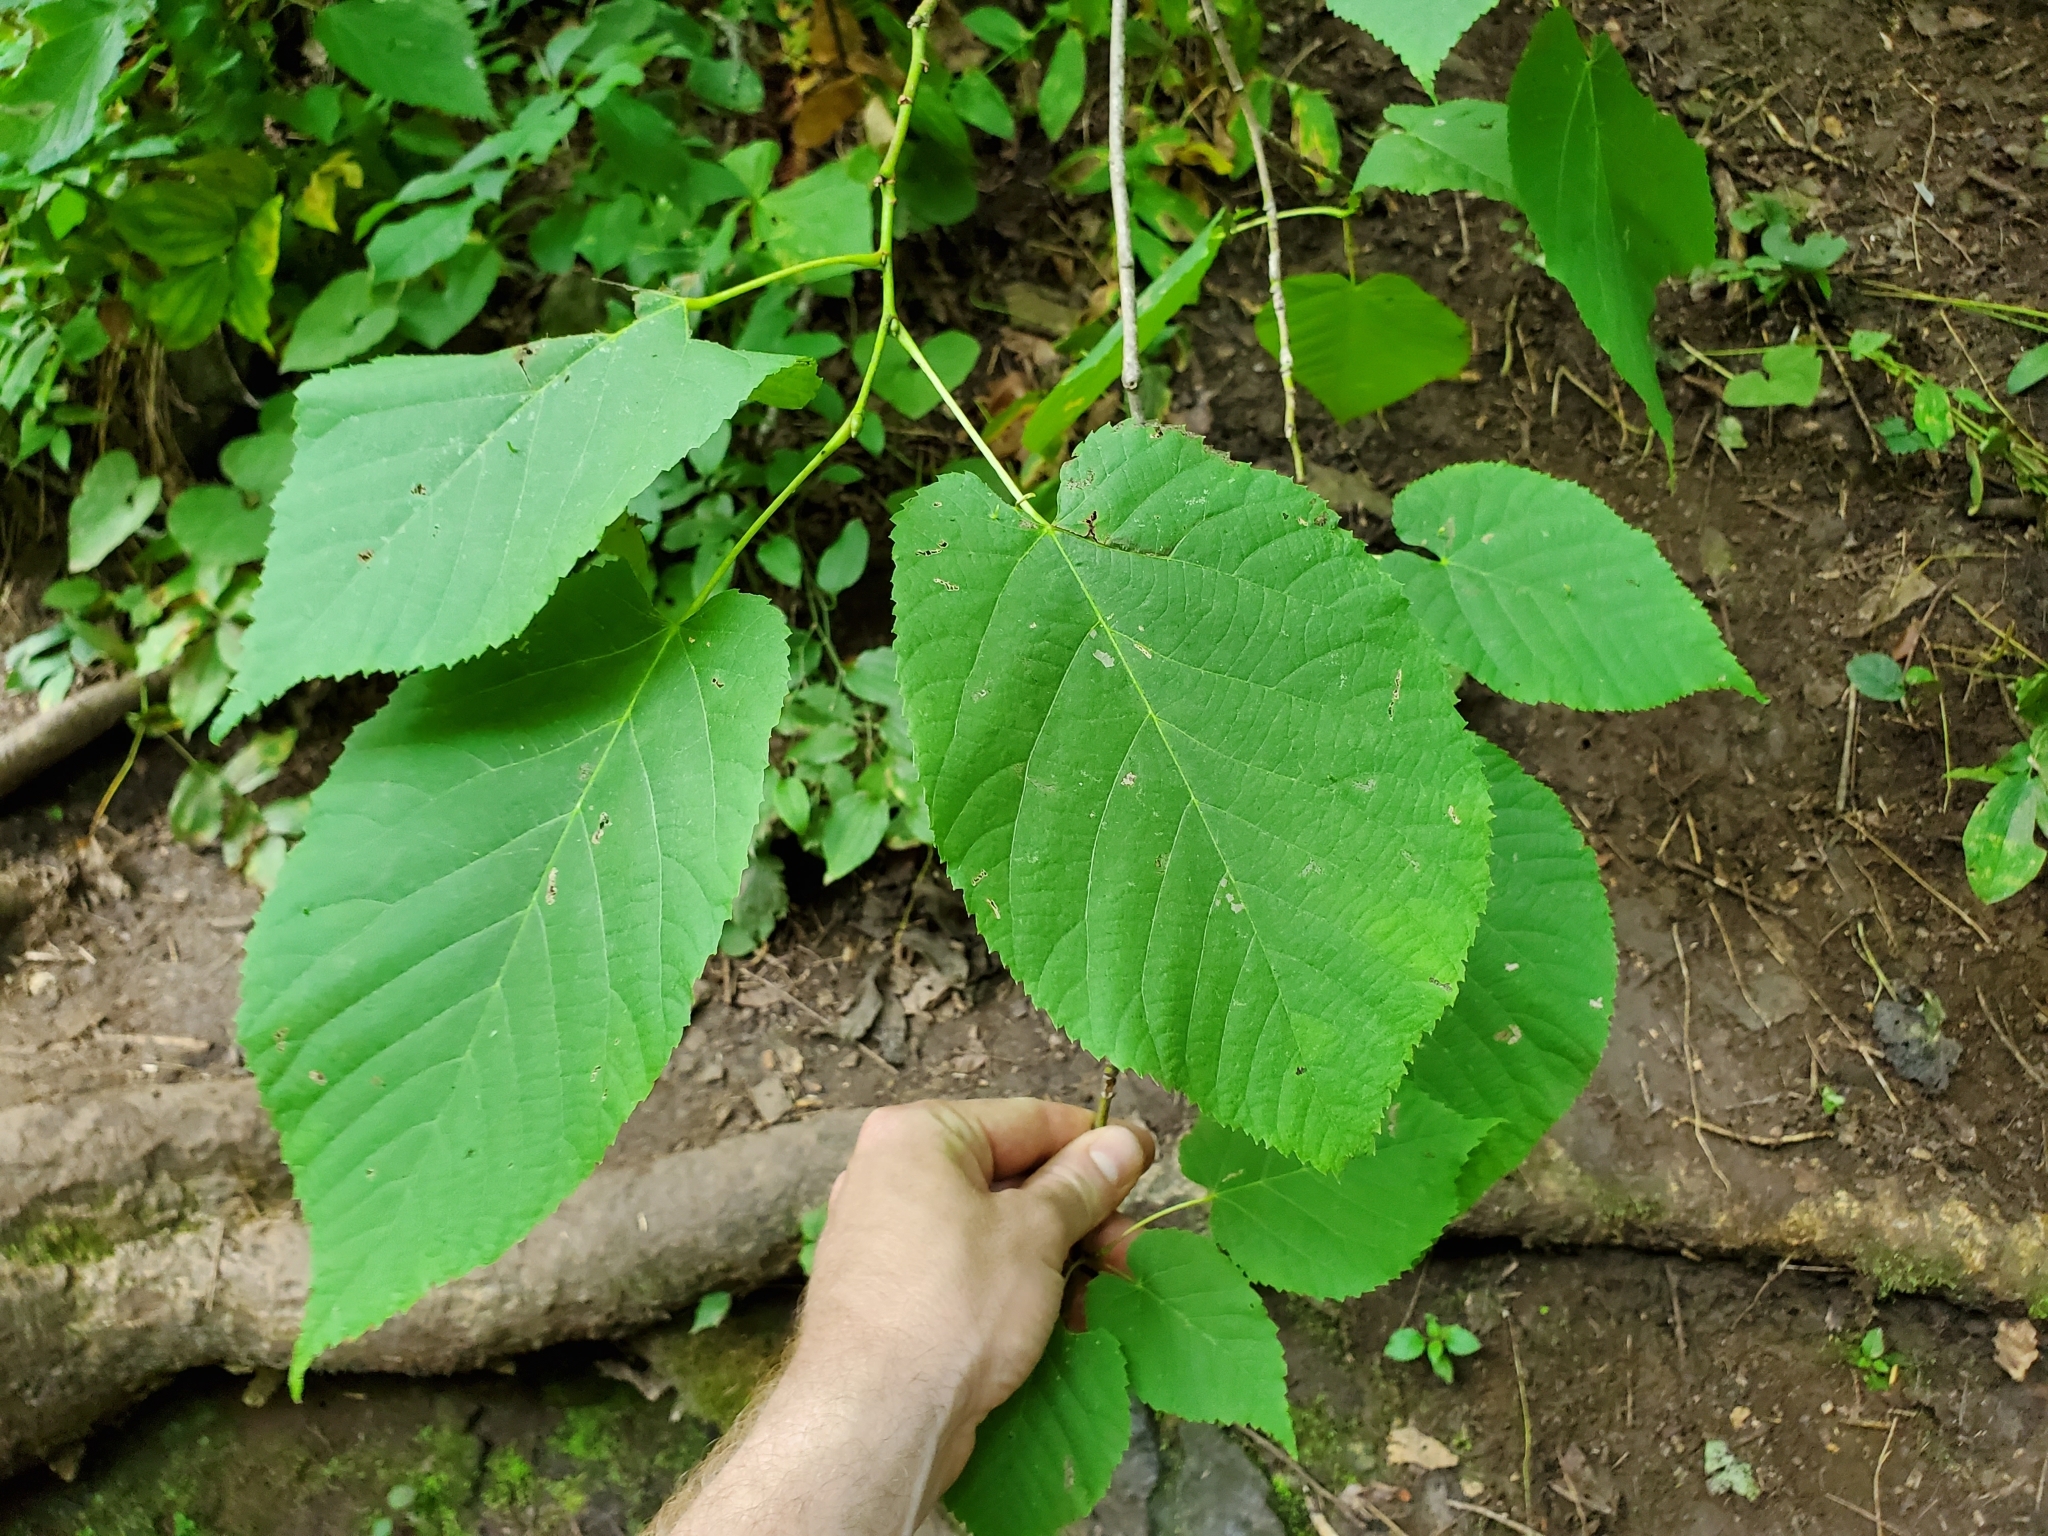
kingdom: Plantae
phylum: Tracheophyta
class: Magnoliopsida
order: Malvales
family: Malvaceae
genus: Tilia
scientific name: Tilia americana
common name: Basswood
